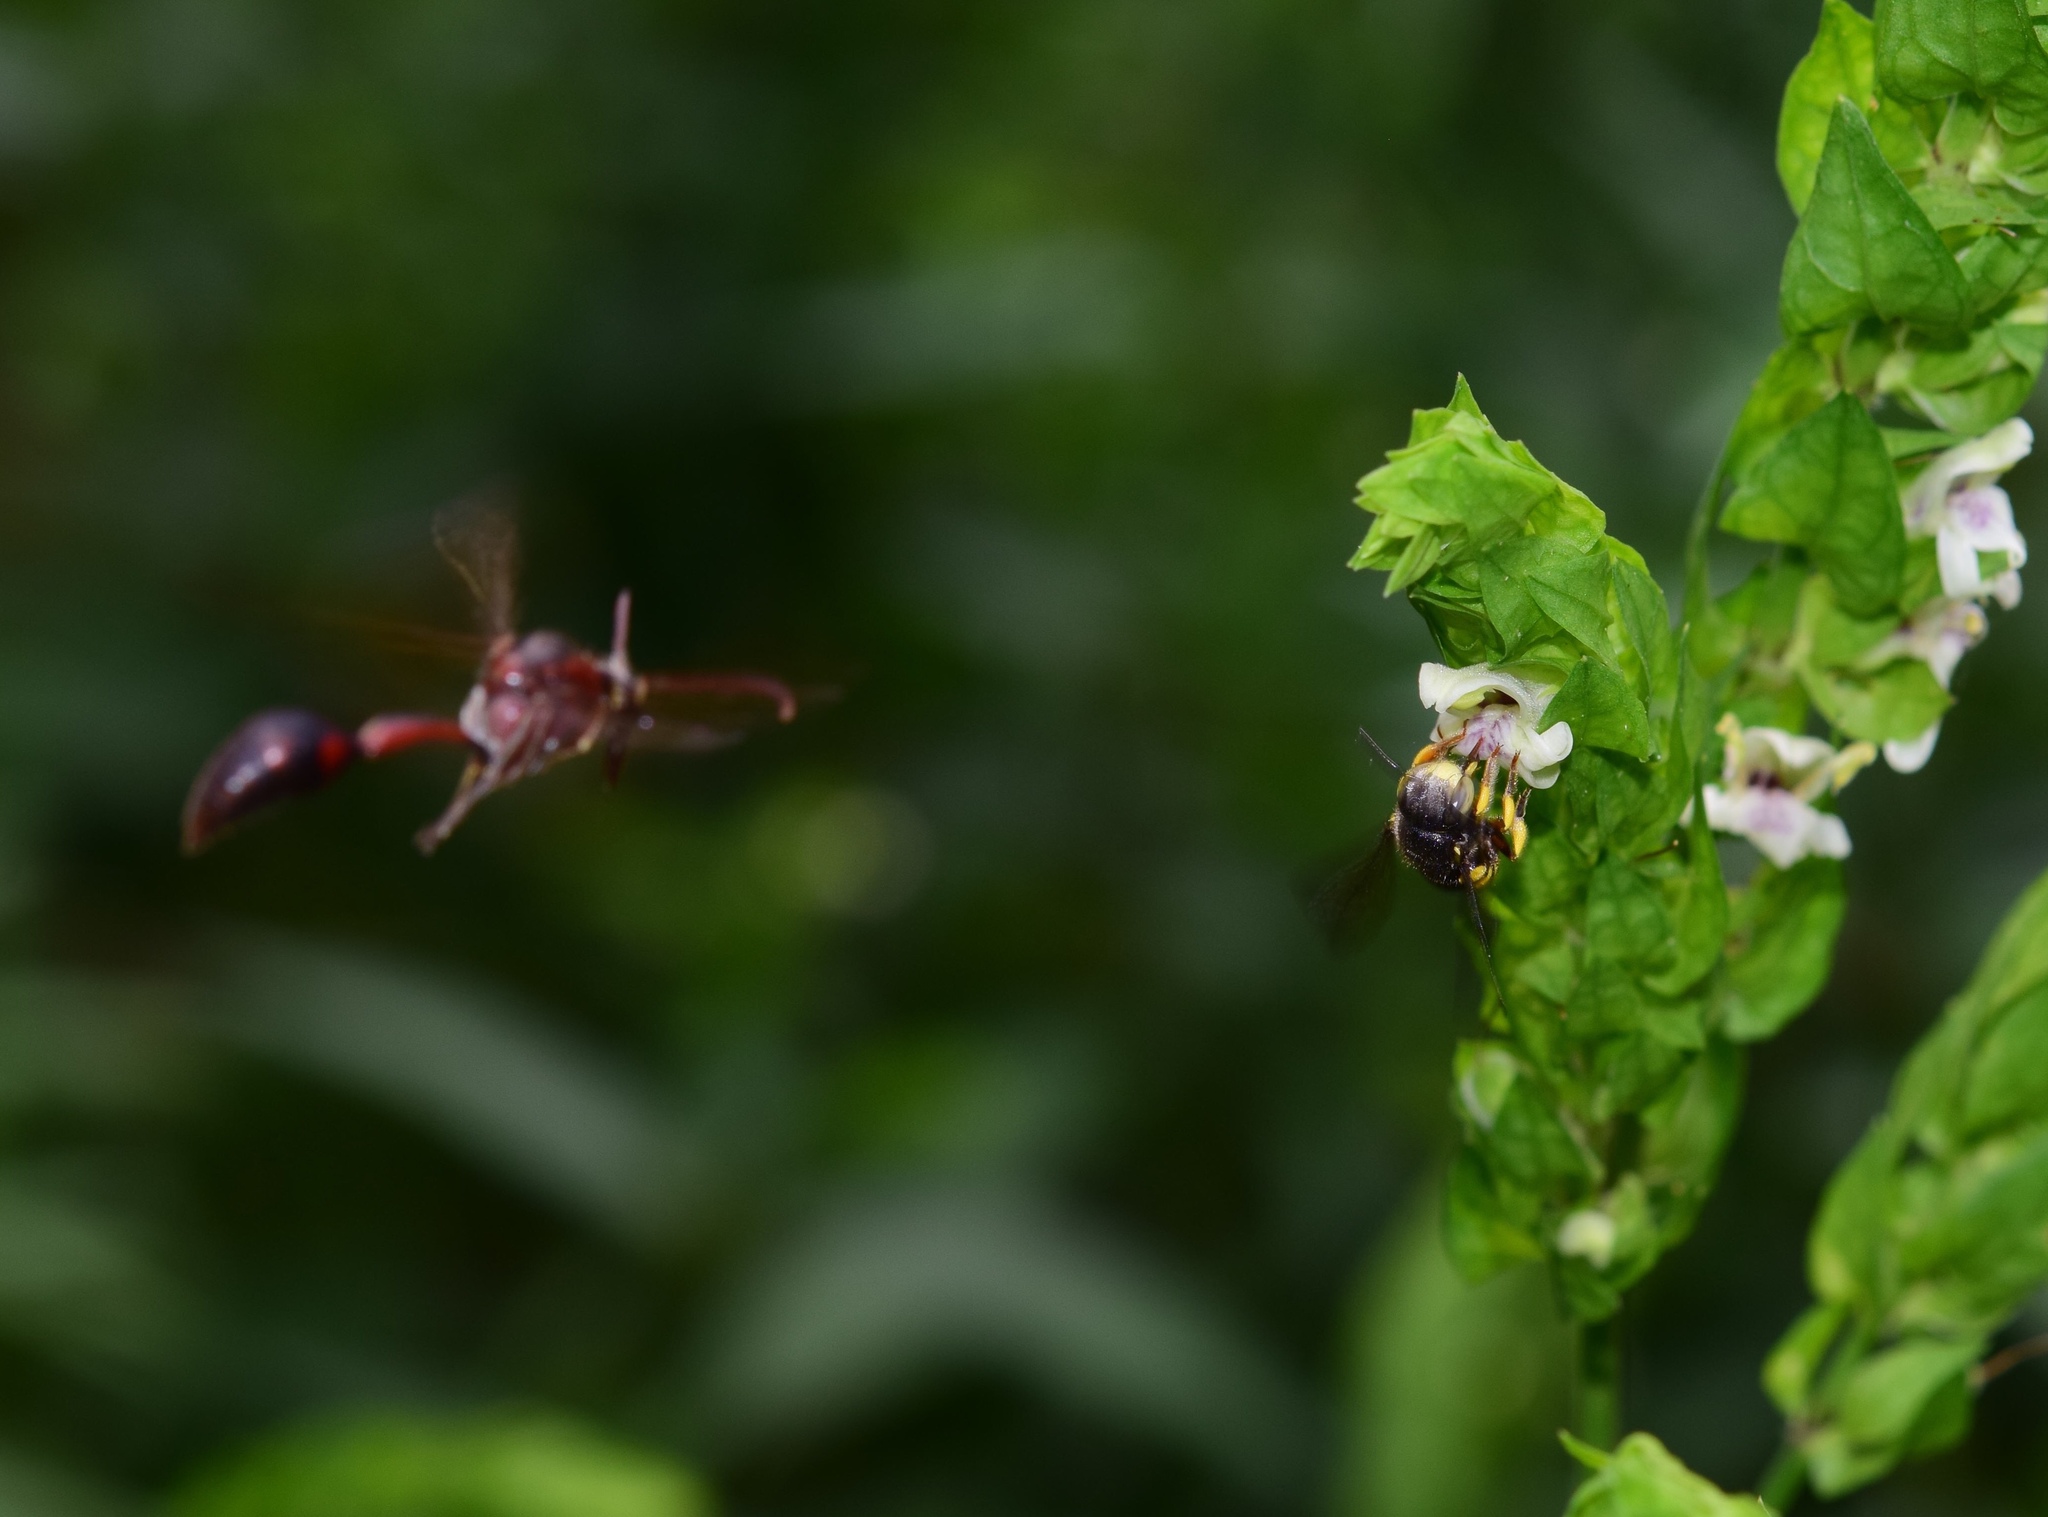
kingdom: Animalia
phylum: Arthropoda
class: Insecta
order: Hymenoptera
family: Megachilidae
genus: Pseudoanthidium
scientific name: Pseudoanthidium truncatum
